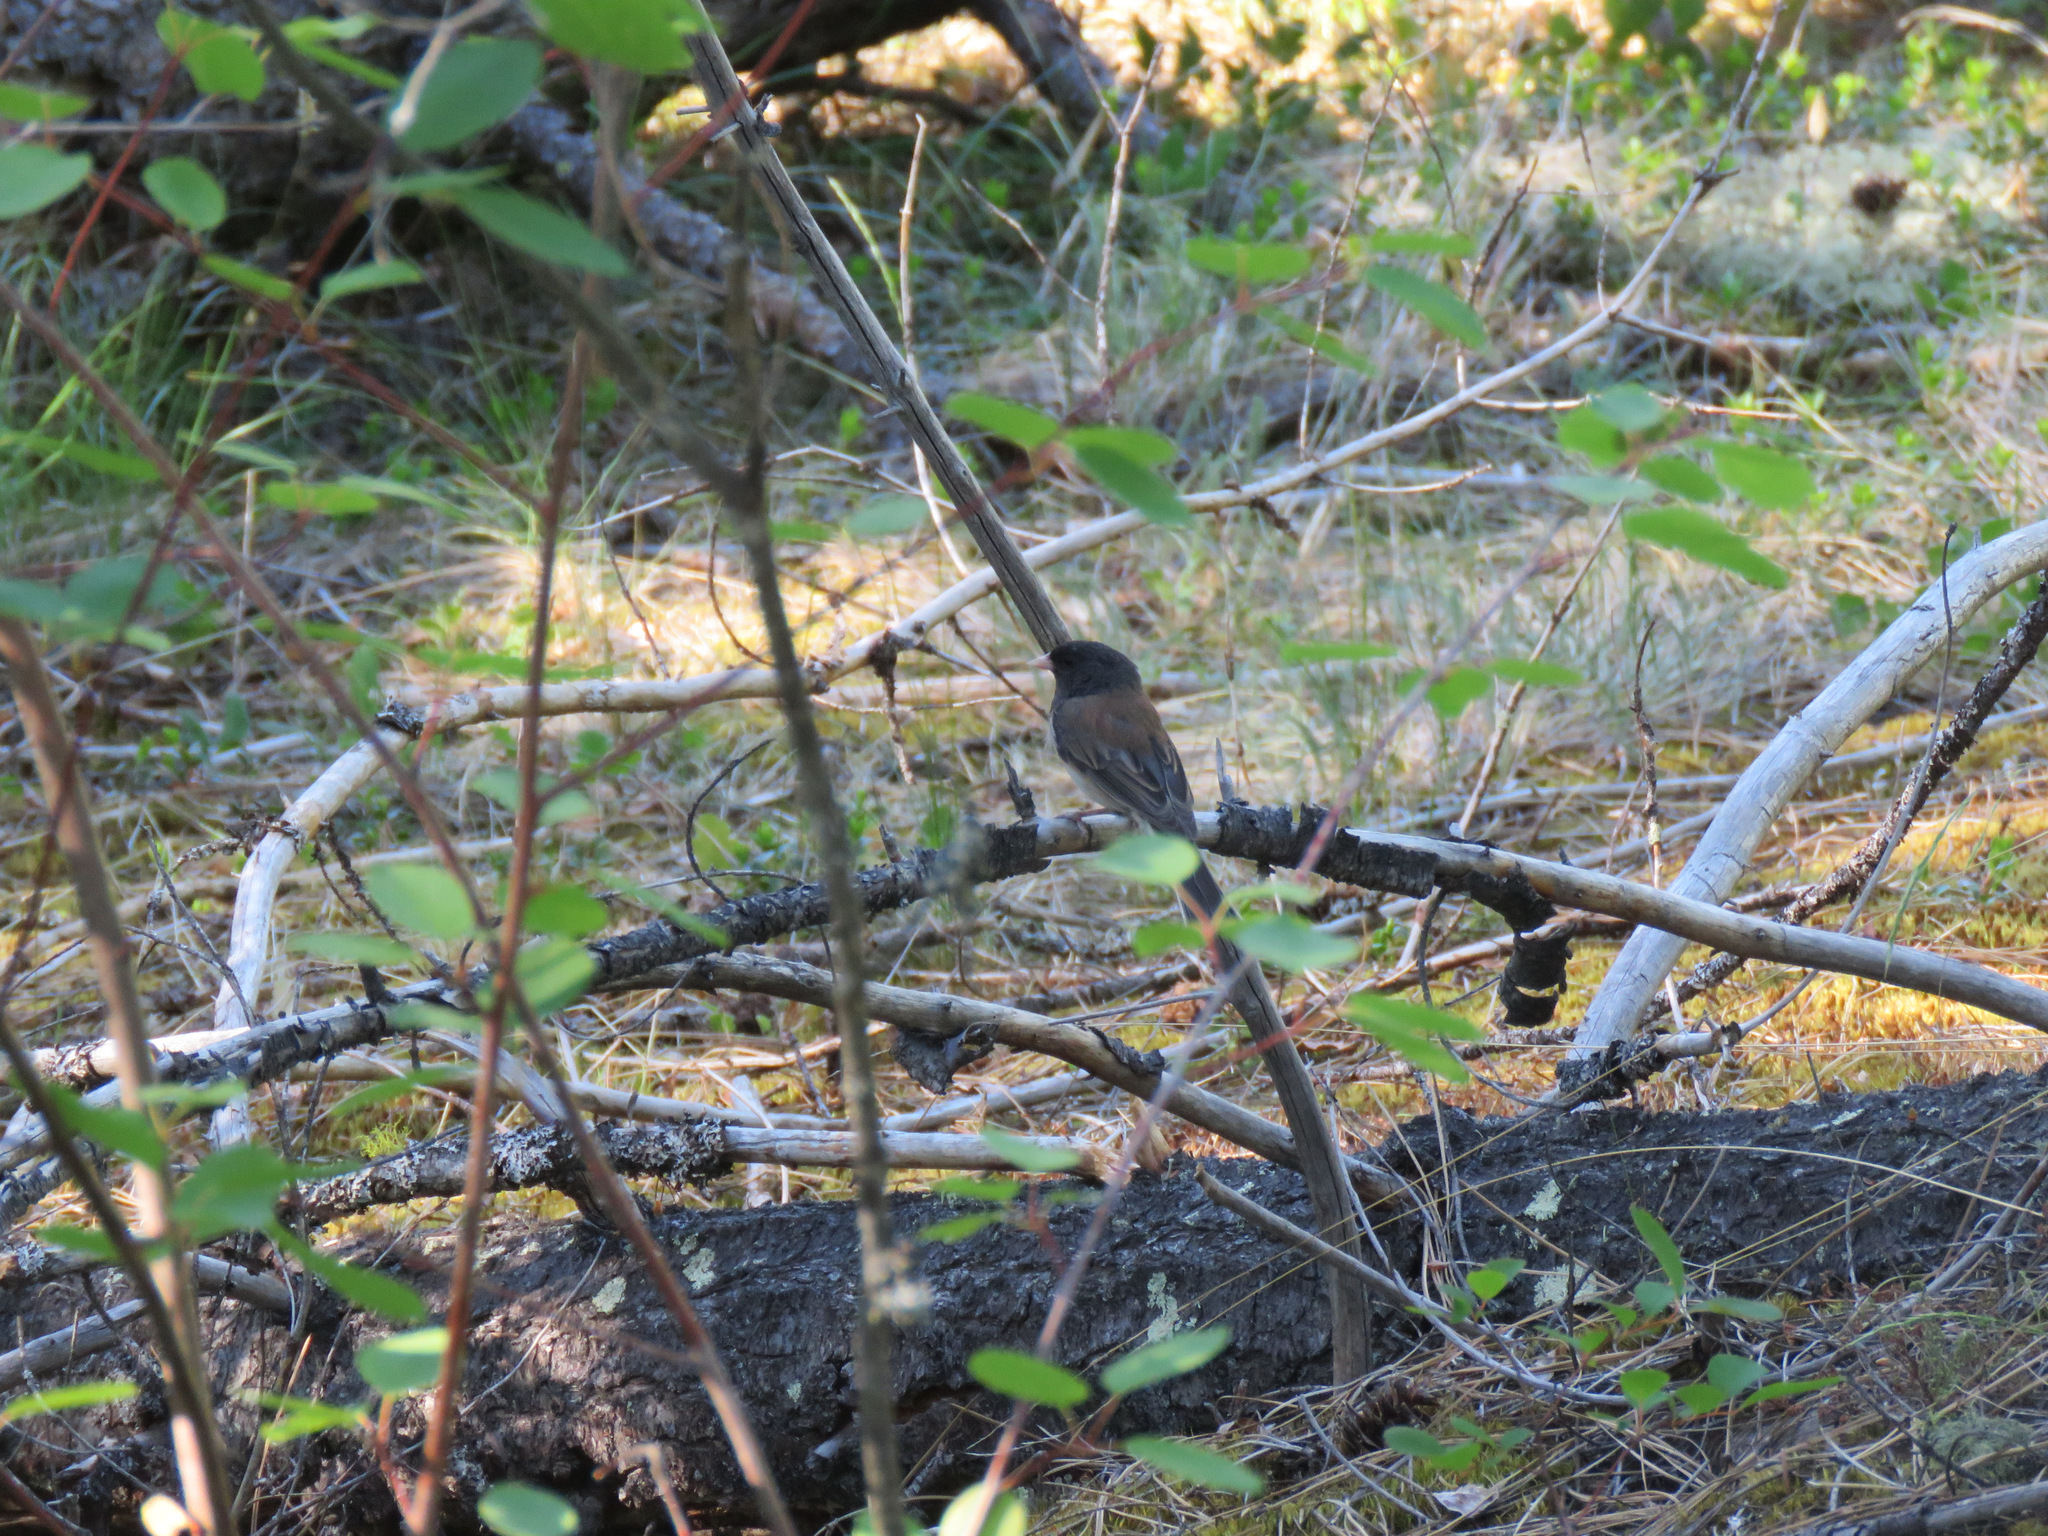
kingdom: Animalia
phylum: Chordata
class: Aves
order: Passeriformes
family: Passerellidae
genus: Junco
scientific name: Junco hyemalis
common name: Dark-eyed junco
